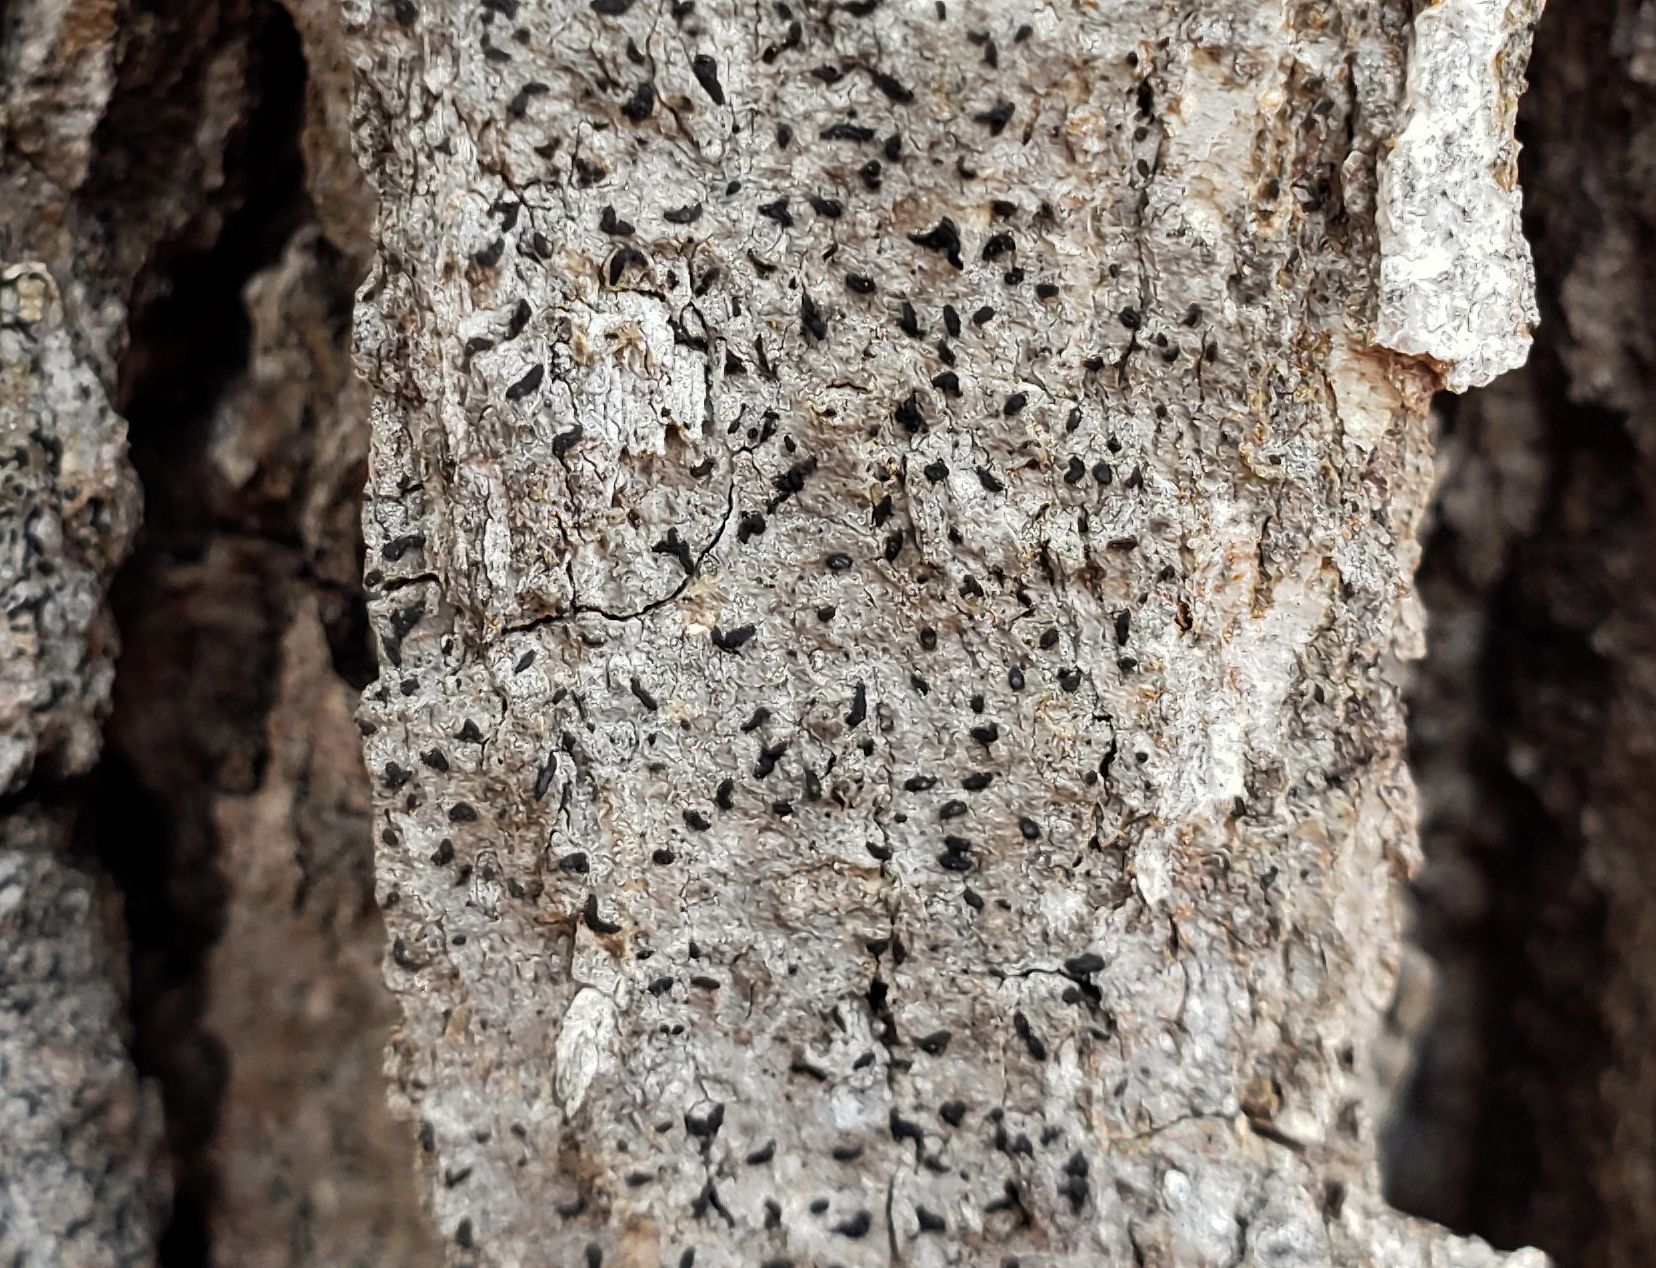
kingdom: Fungi
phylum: Ascomycota
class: Arthoniomycetes
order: Arthoniales
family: Lecanographaceae
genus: Alyxoria
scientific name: Alyxoria varia
